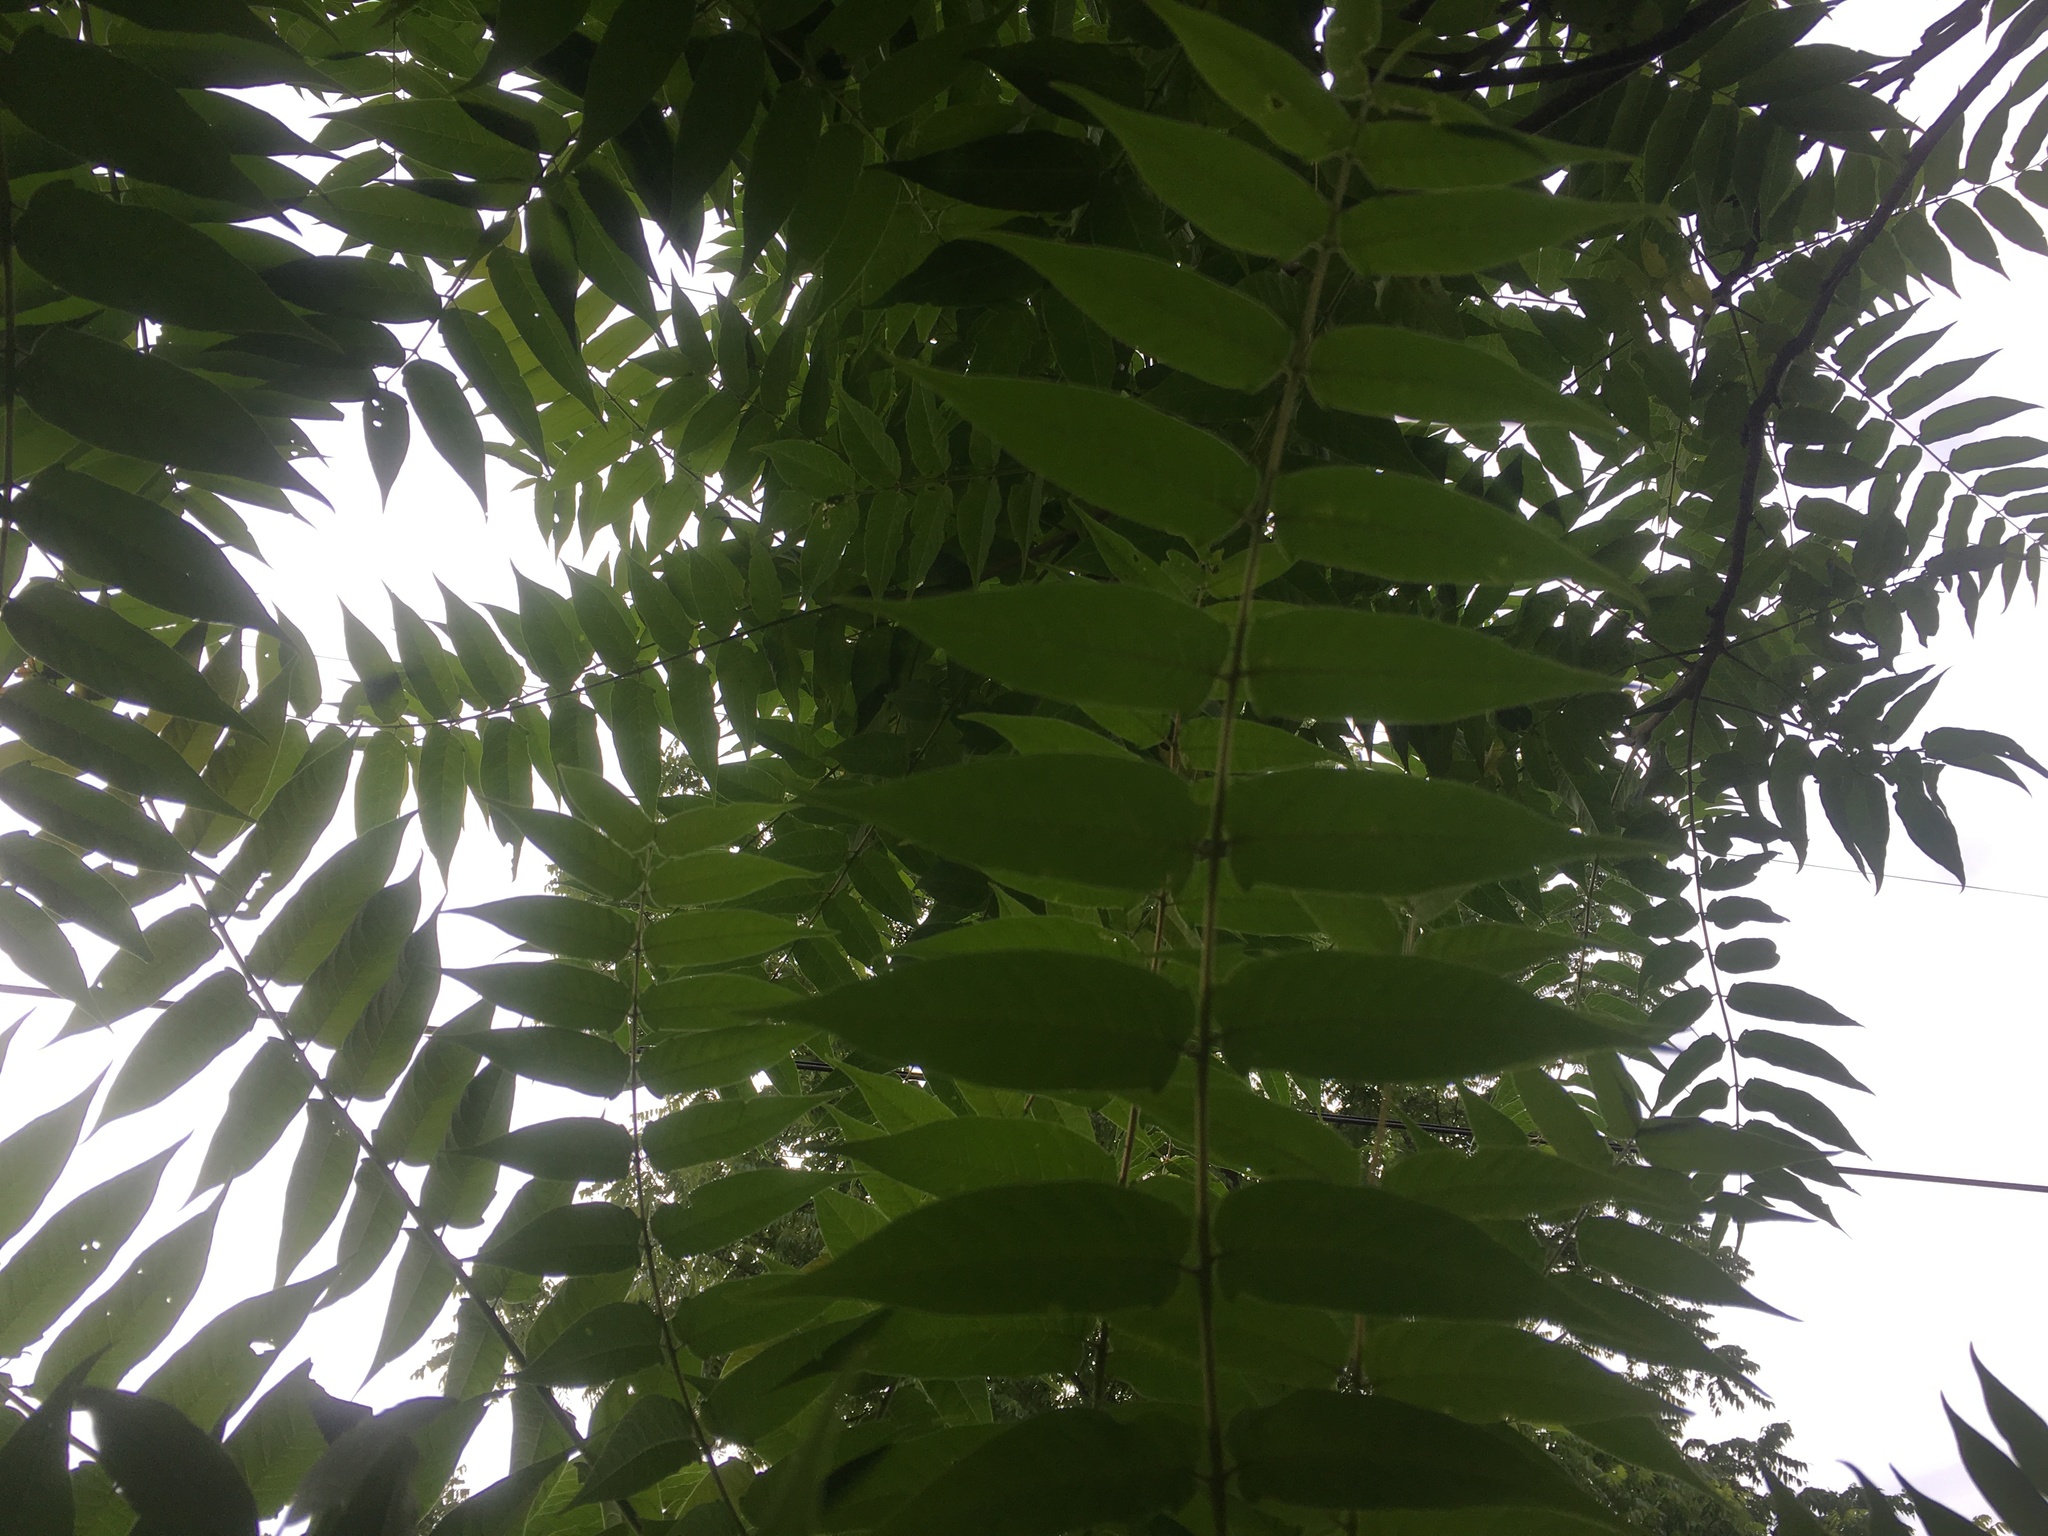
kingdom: Plantae
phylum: Tracheophyta
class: Magnoliopsida
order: Sapindales
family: Simaroubaceae
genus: Ailanthus
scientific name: Ailanthus altissima
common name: Tree-of-heaven
